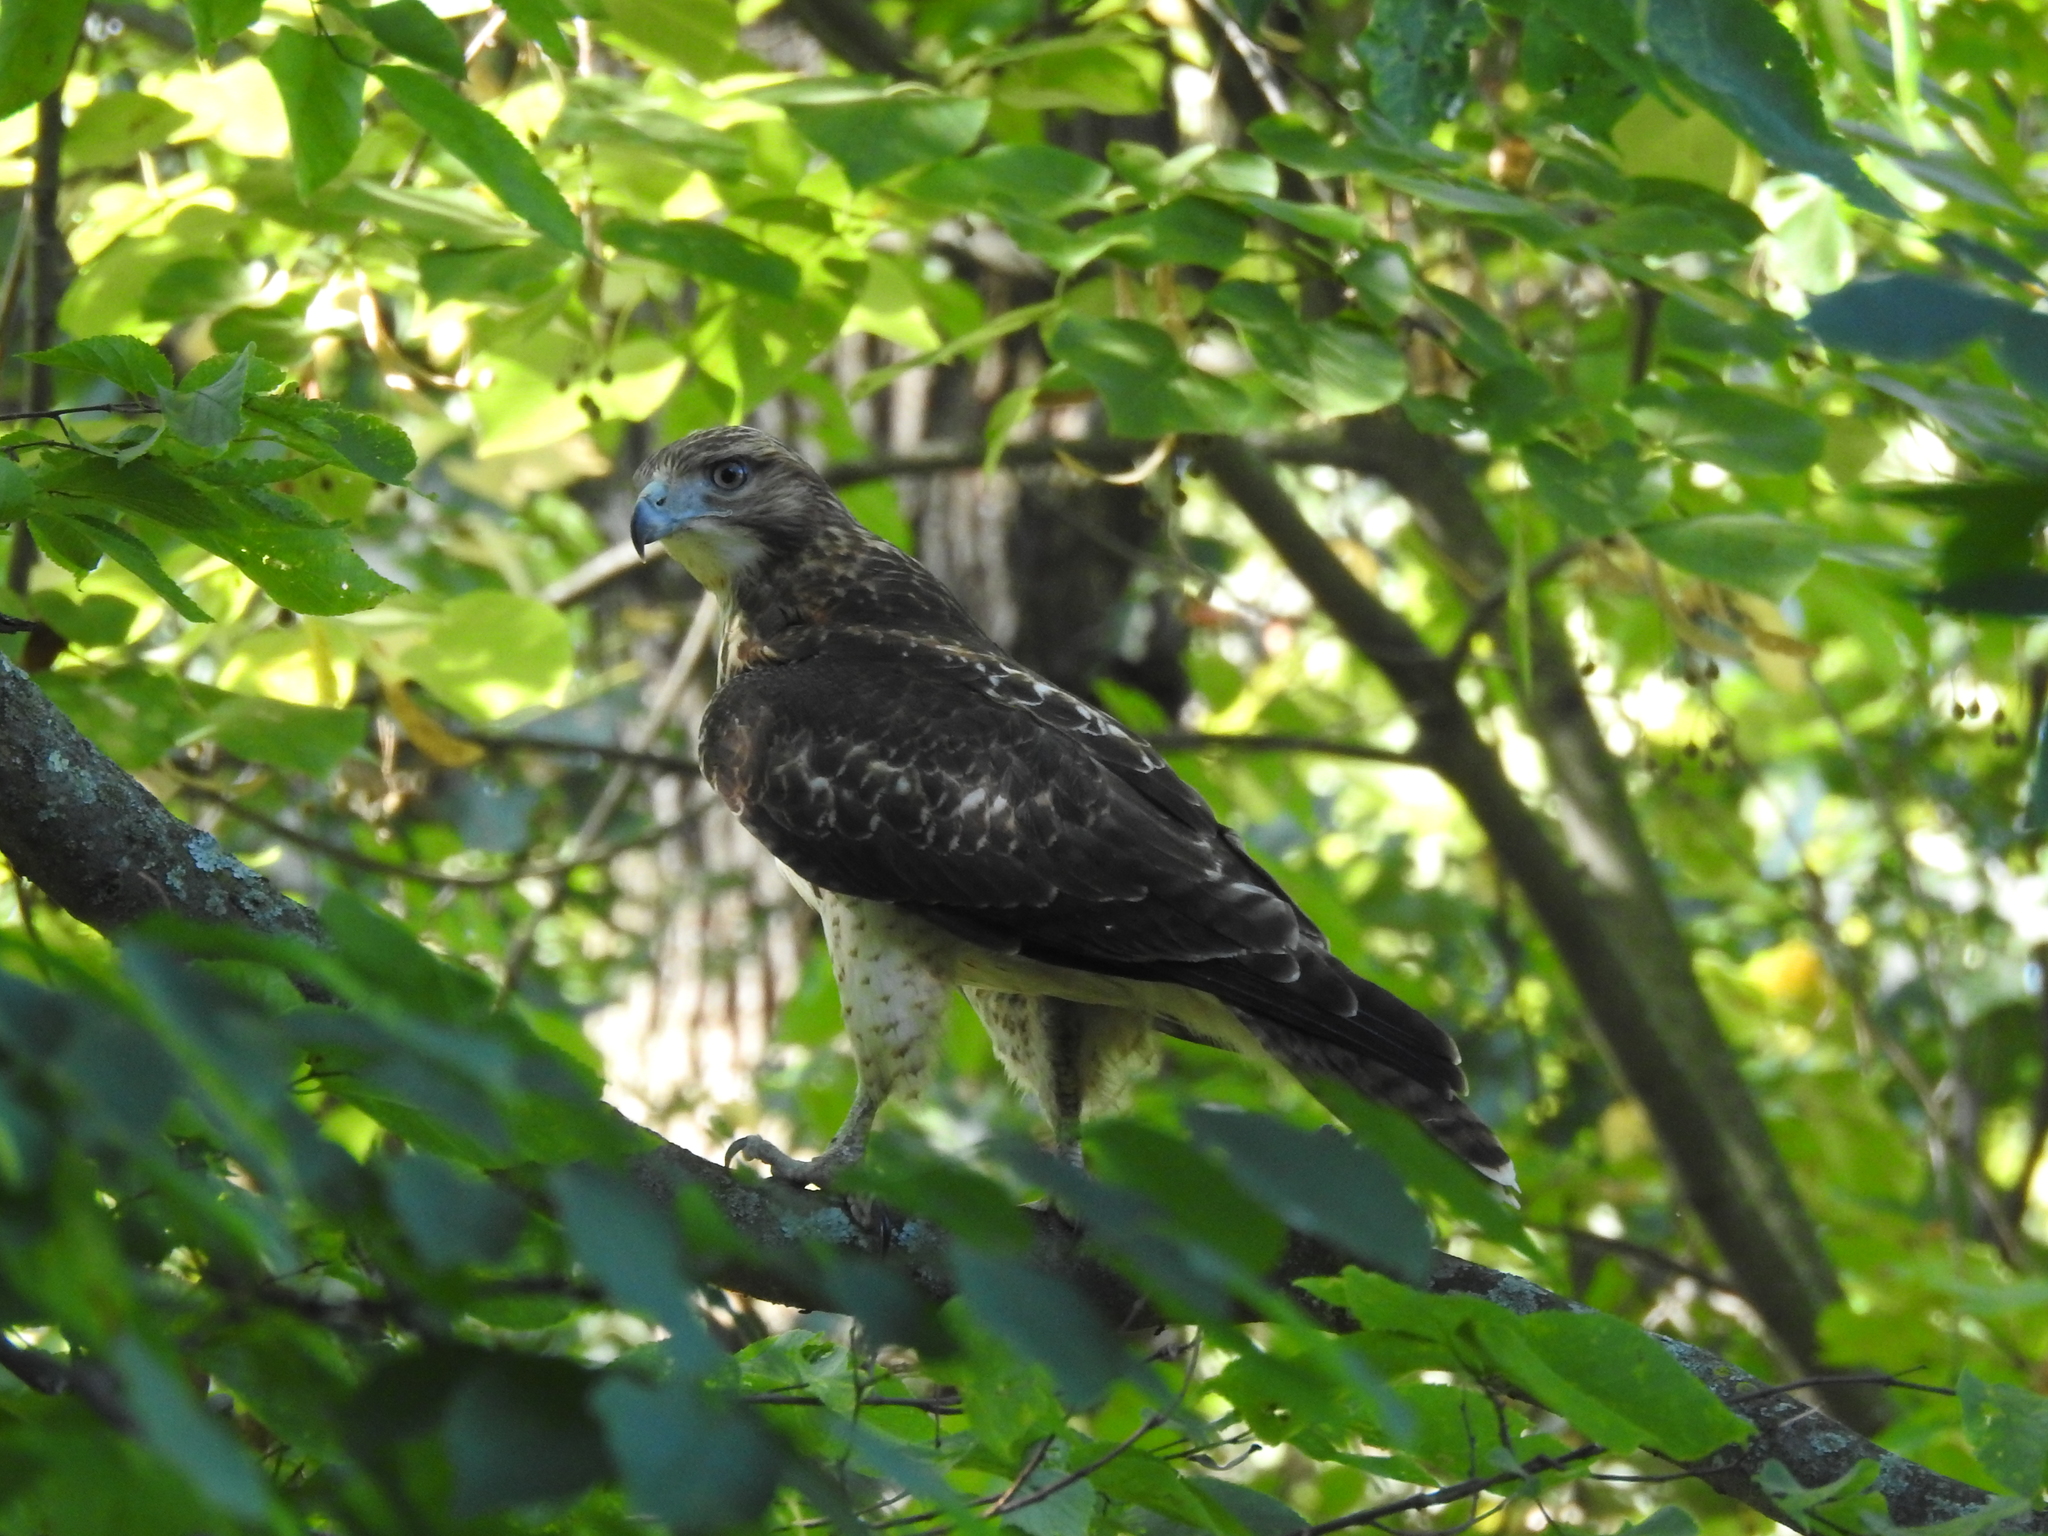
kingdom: Animalia
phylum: Chordata
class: Aves
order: Accipitriformes
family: Accipitridae
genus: Buteo
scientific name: Buteo jamaicensis
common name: Red-tailed hawk
